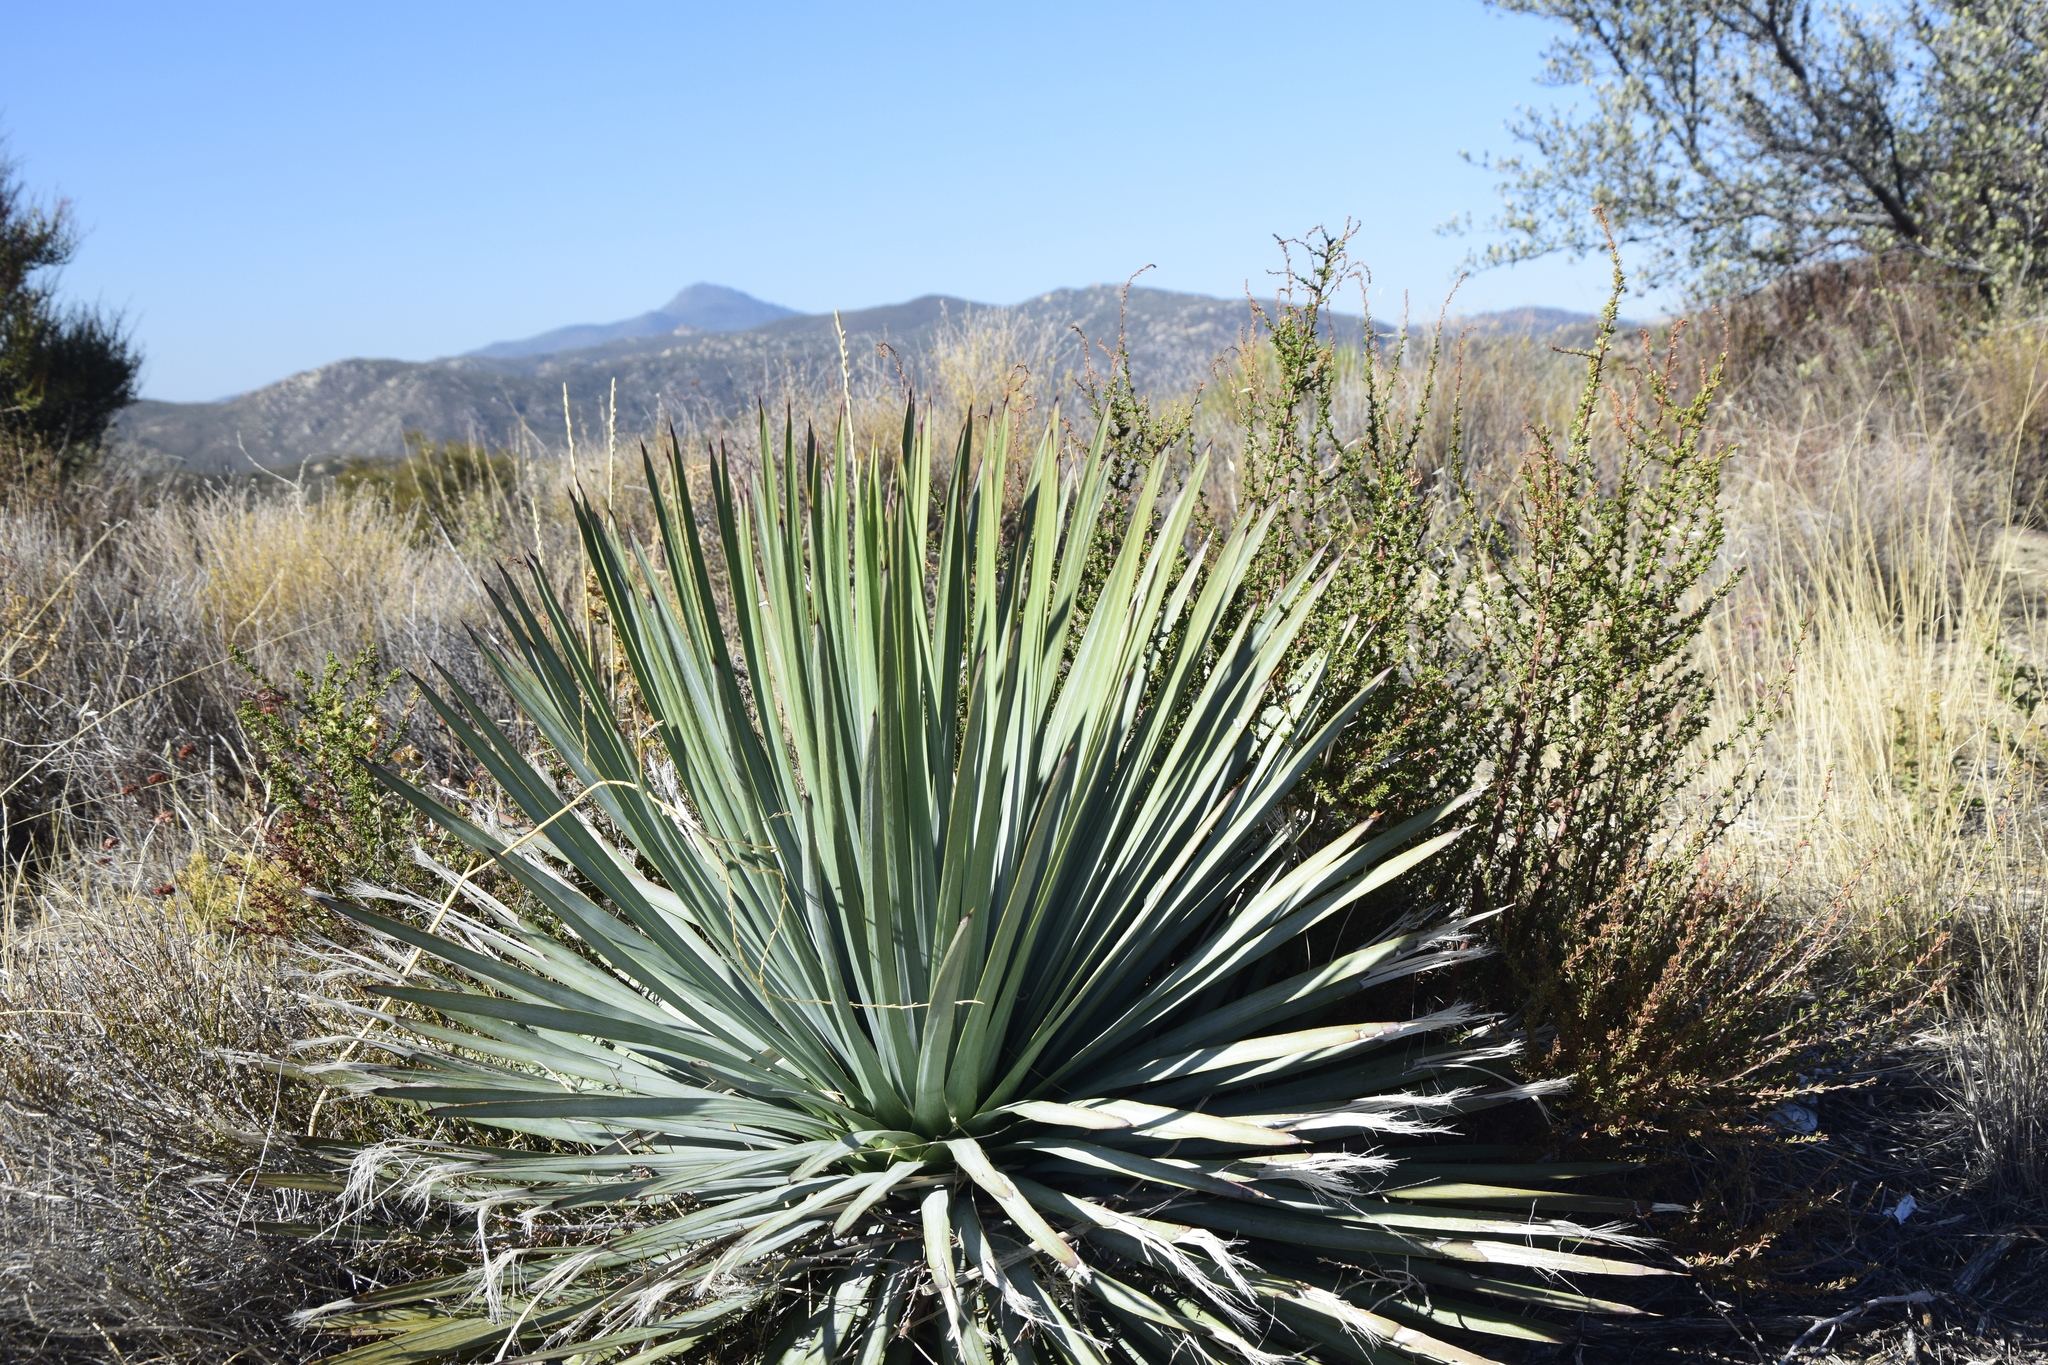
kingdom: Plantae
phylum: Tracheophyta
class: Liliopsida
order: Asparagales
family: Asparagaceae
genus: Hesperoyucca
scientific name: Hesperoyucca whipplei
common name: Our lord's-candle
